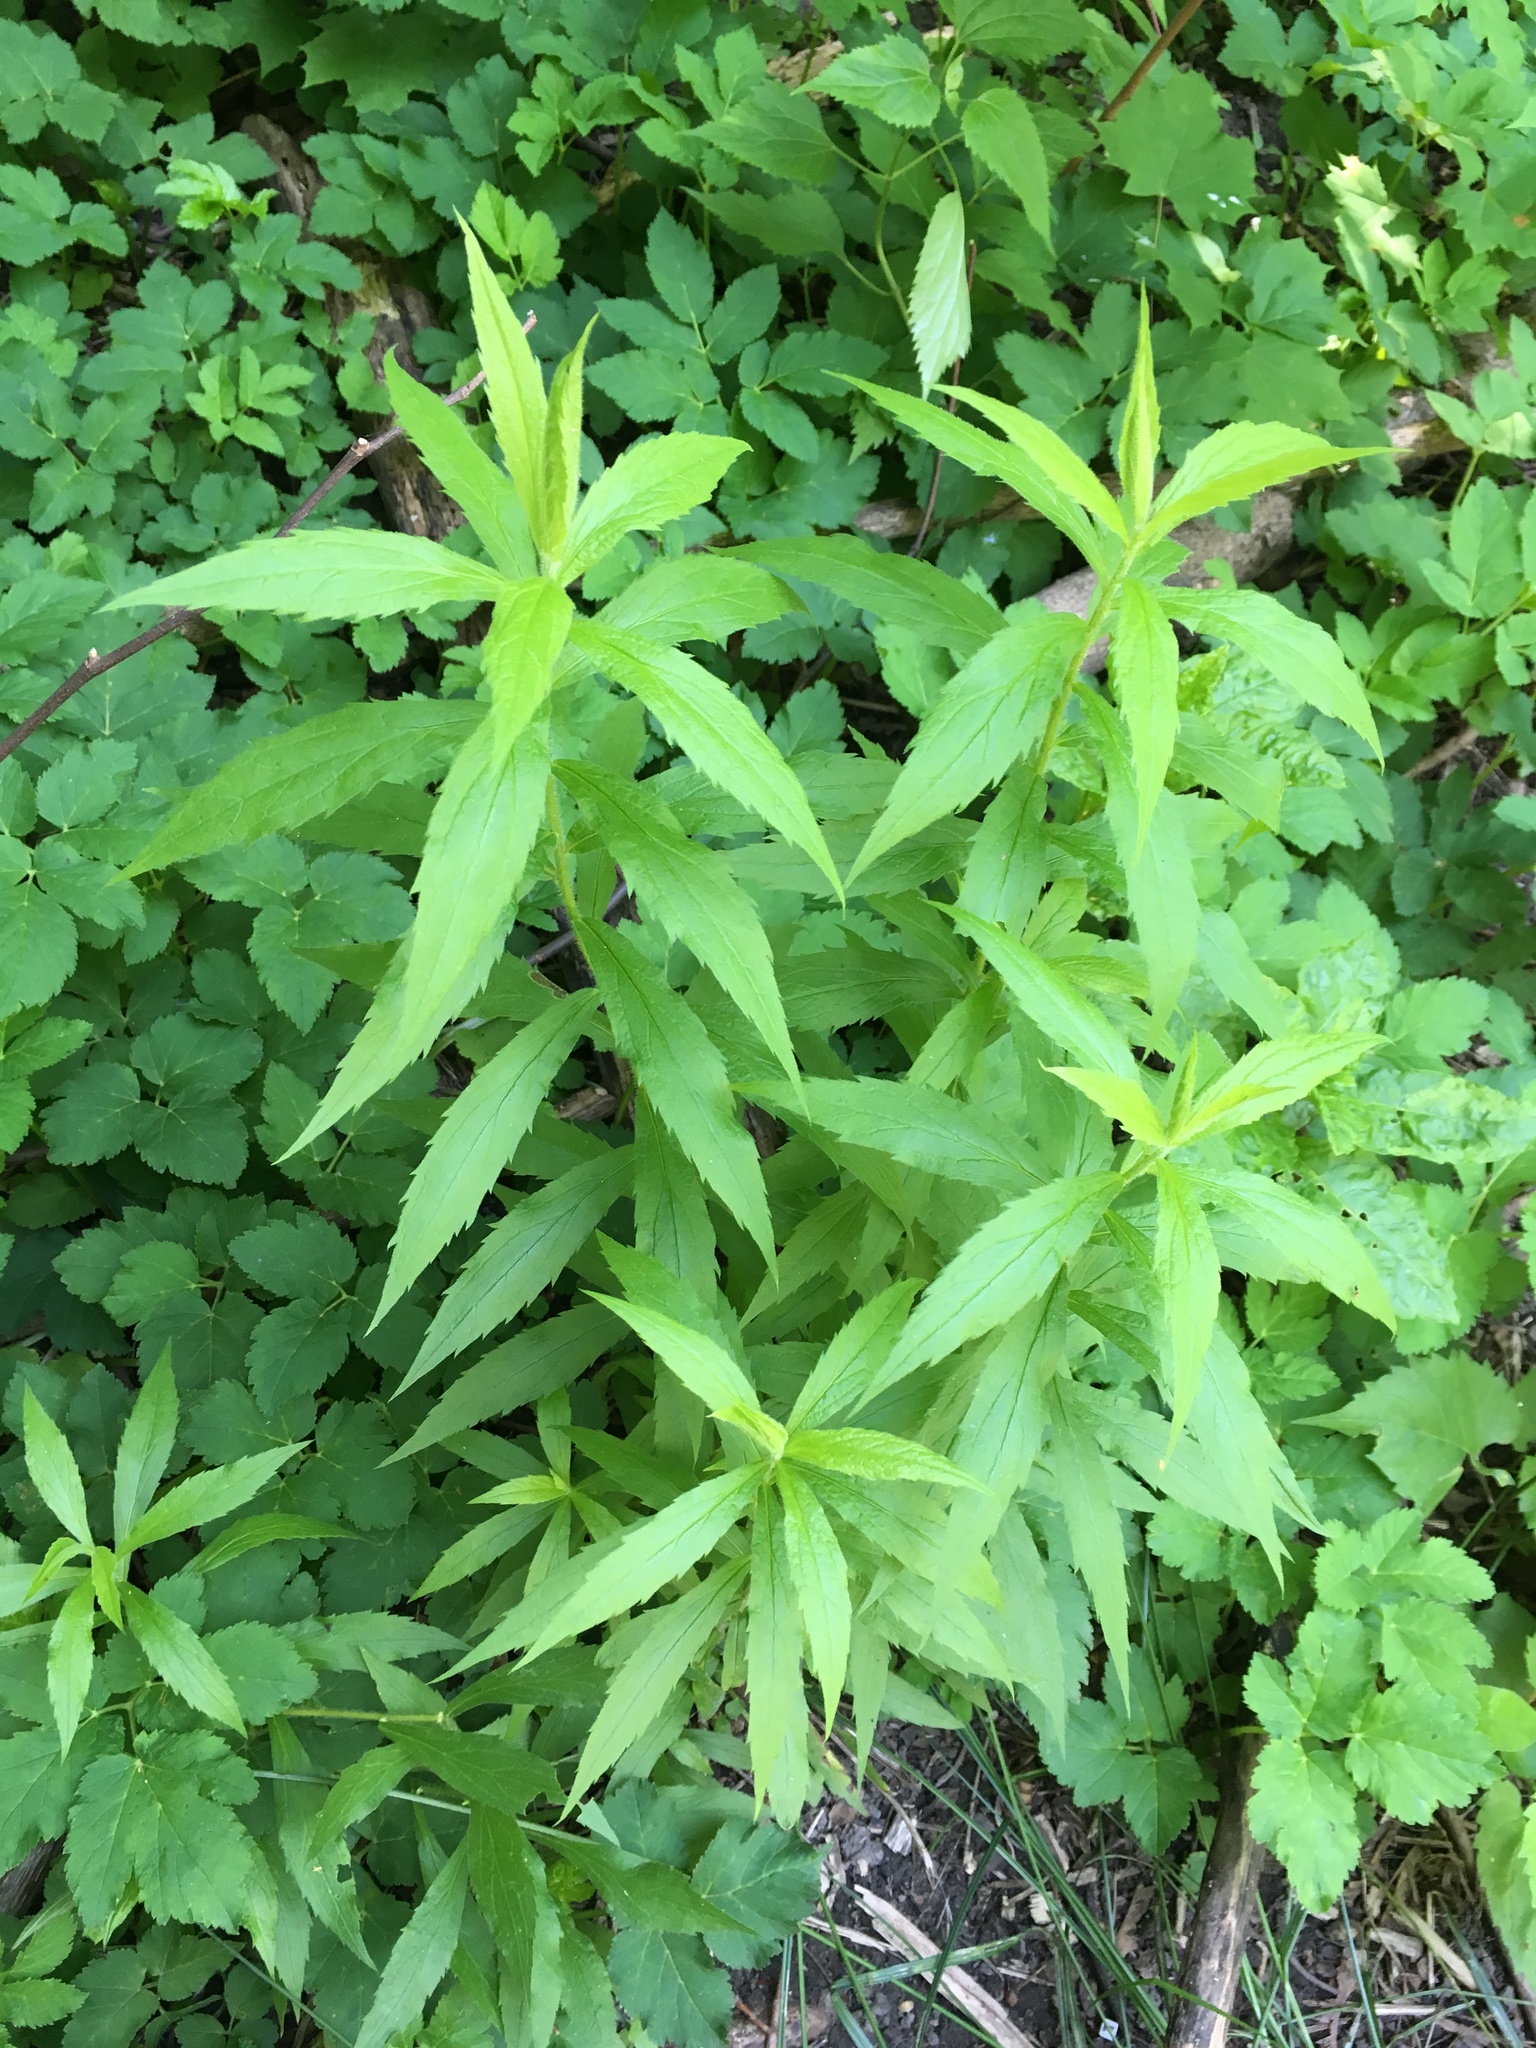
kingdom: Plantae
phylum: Tracheophyta
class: Magnoliopsida
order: Asterales
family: Asteraceae
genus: Solidago
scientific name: Solidago rugosa
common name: Rough-stemmed goldenrod
